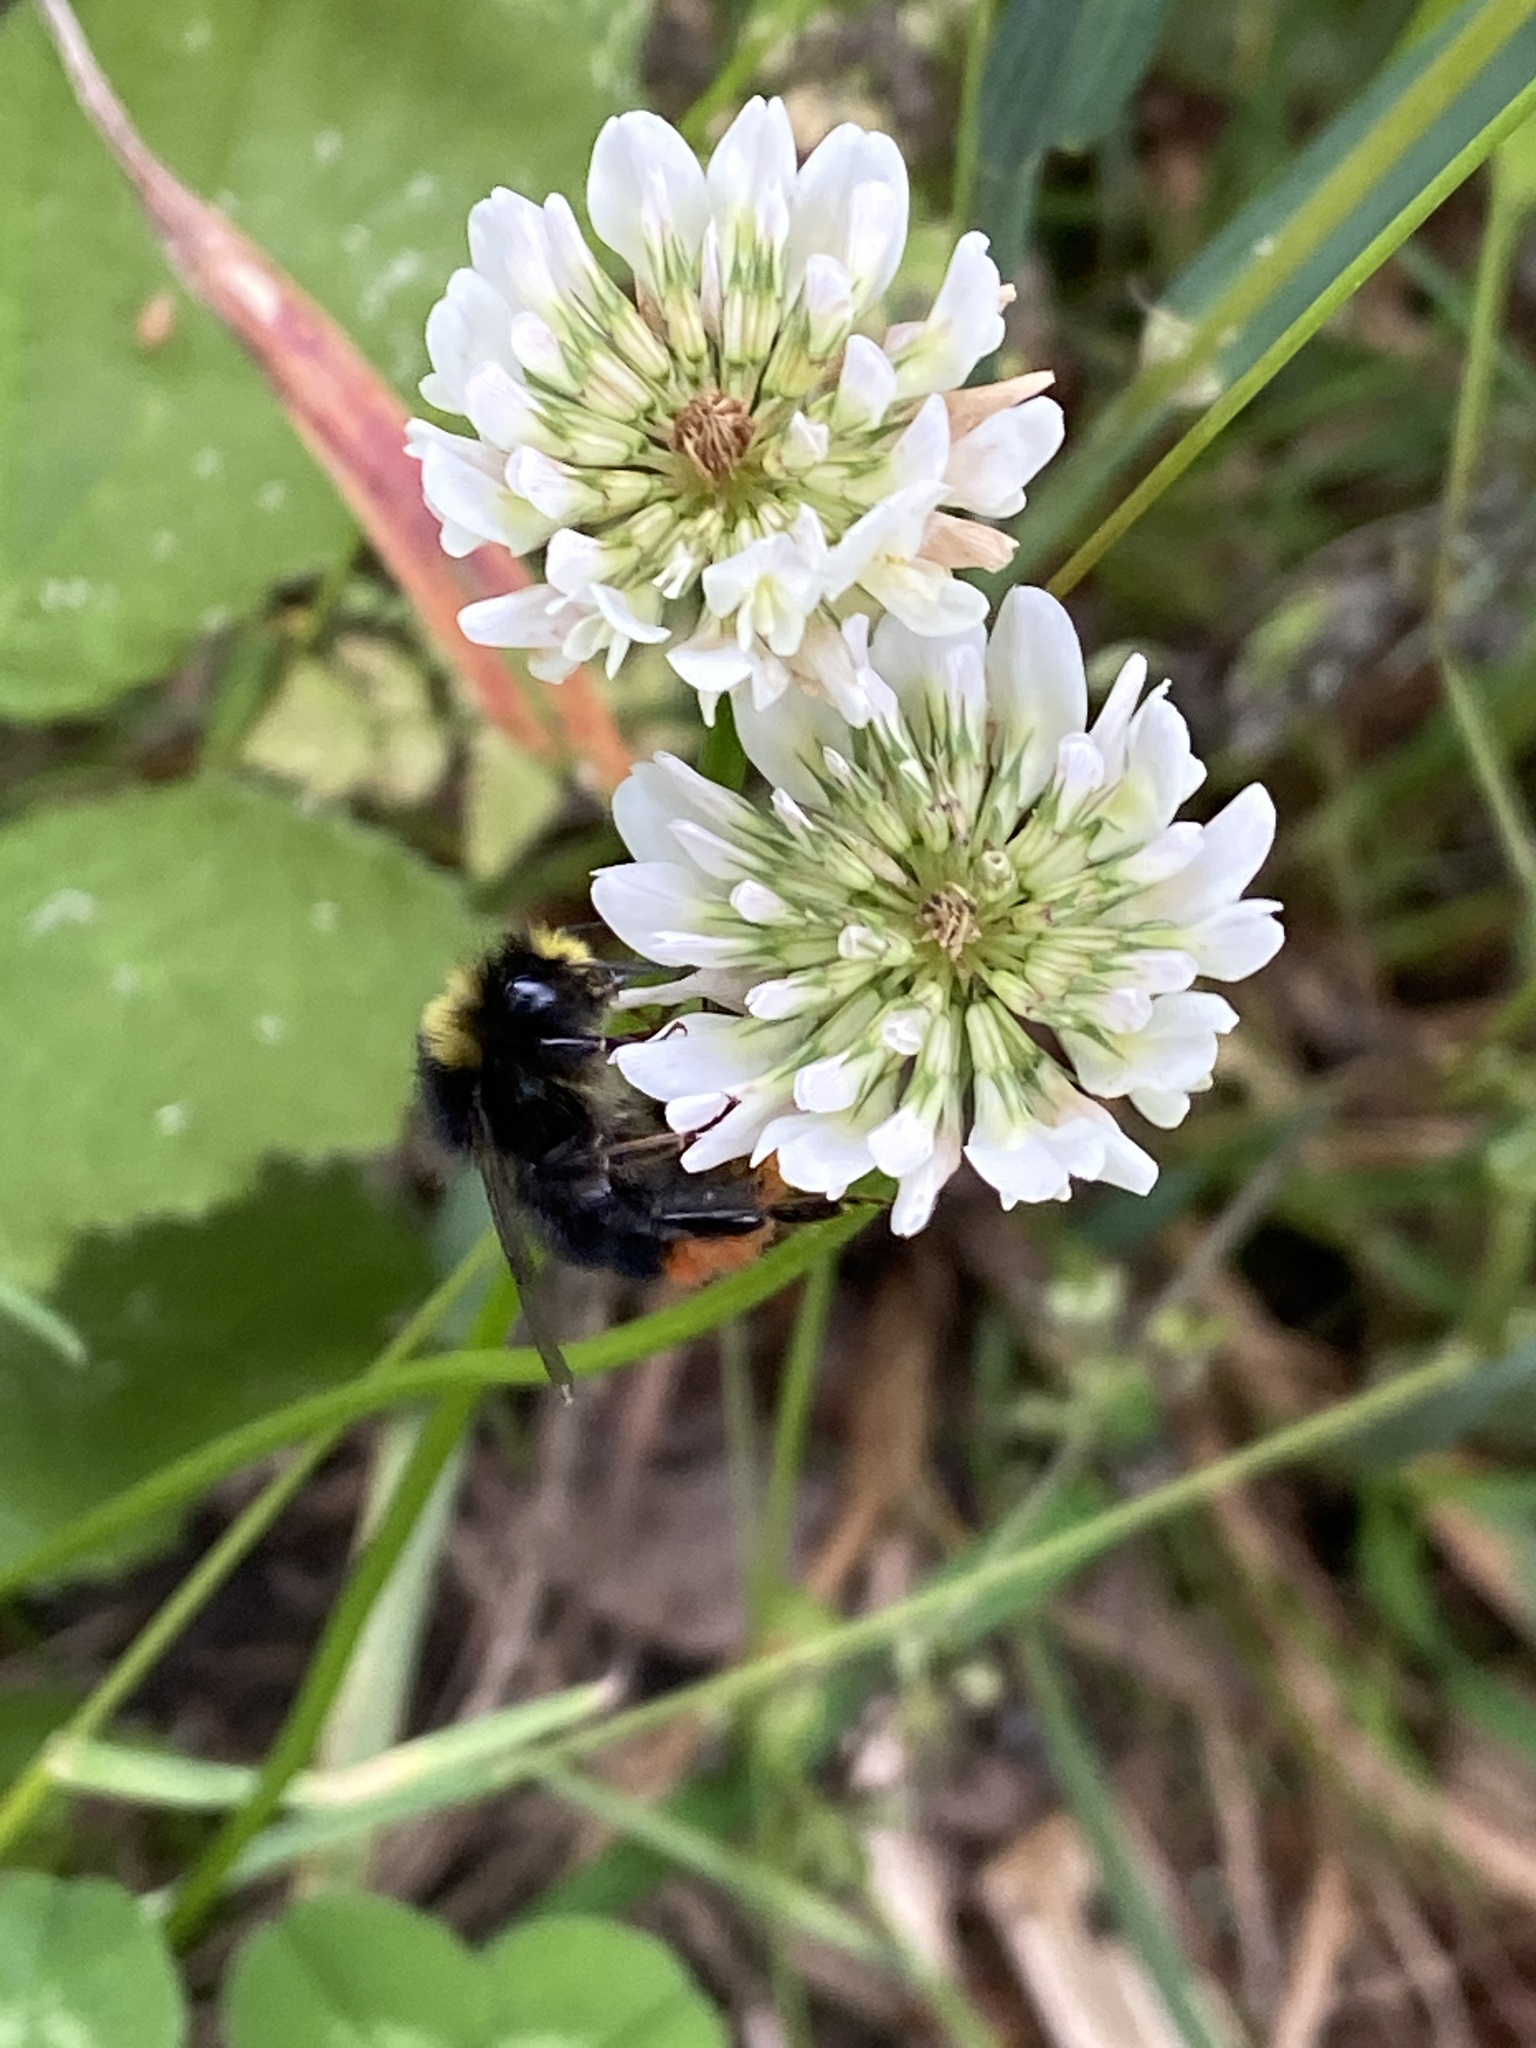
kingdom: Animalia
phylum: Arthropoda
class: Insecta
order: Hymenoptera
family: Apidae
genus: Bombus
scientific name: Bombus lapidarius
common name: Large red-tailed humble-bee
